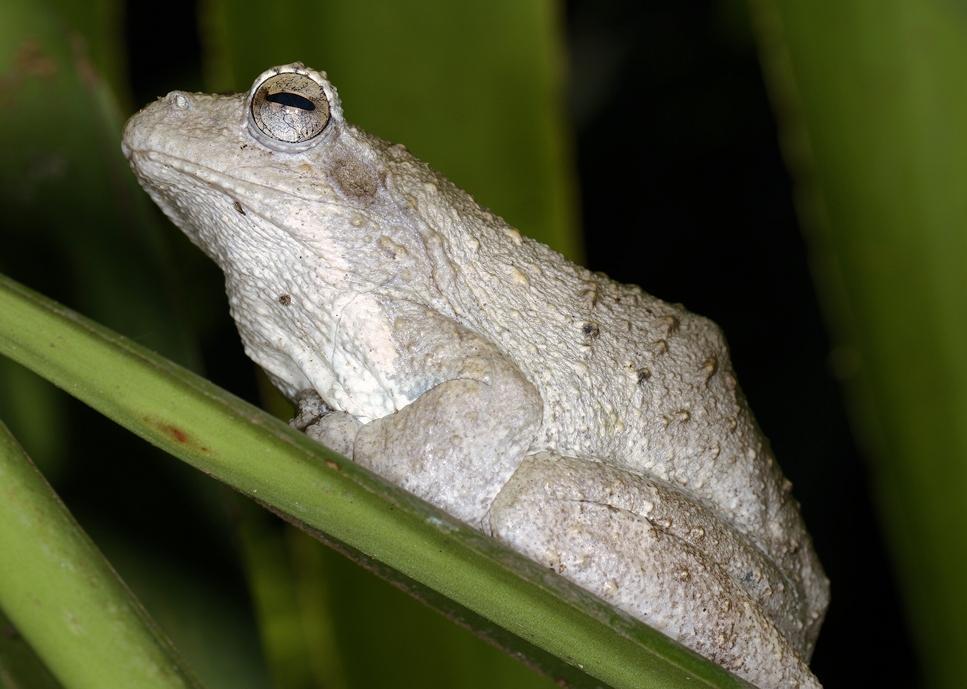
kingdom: Animalia
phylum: Chordata
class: Amphibia
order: Anura
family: Rhacophoridae
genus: Chiromantis
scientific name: Chiromantis xerampelina
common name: African gray treefrog
